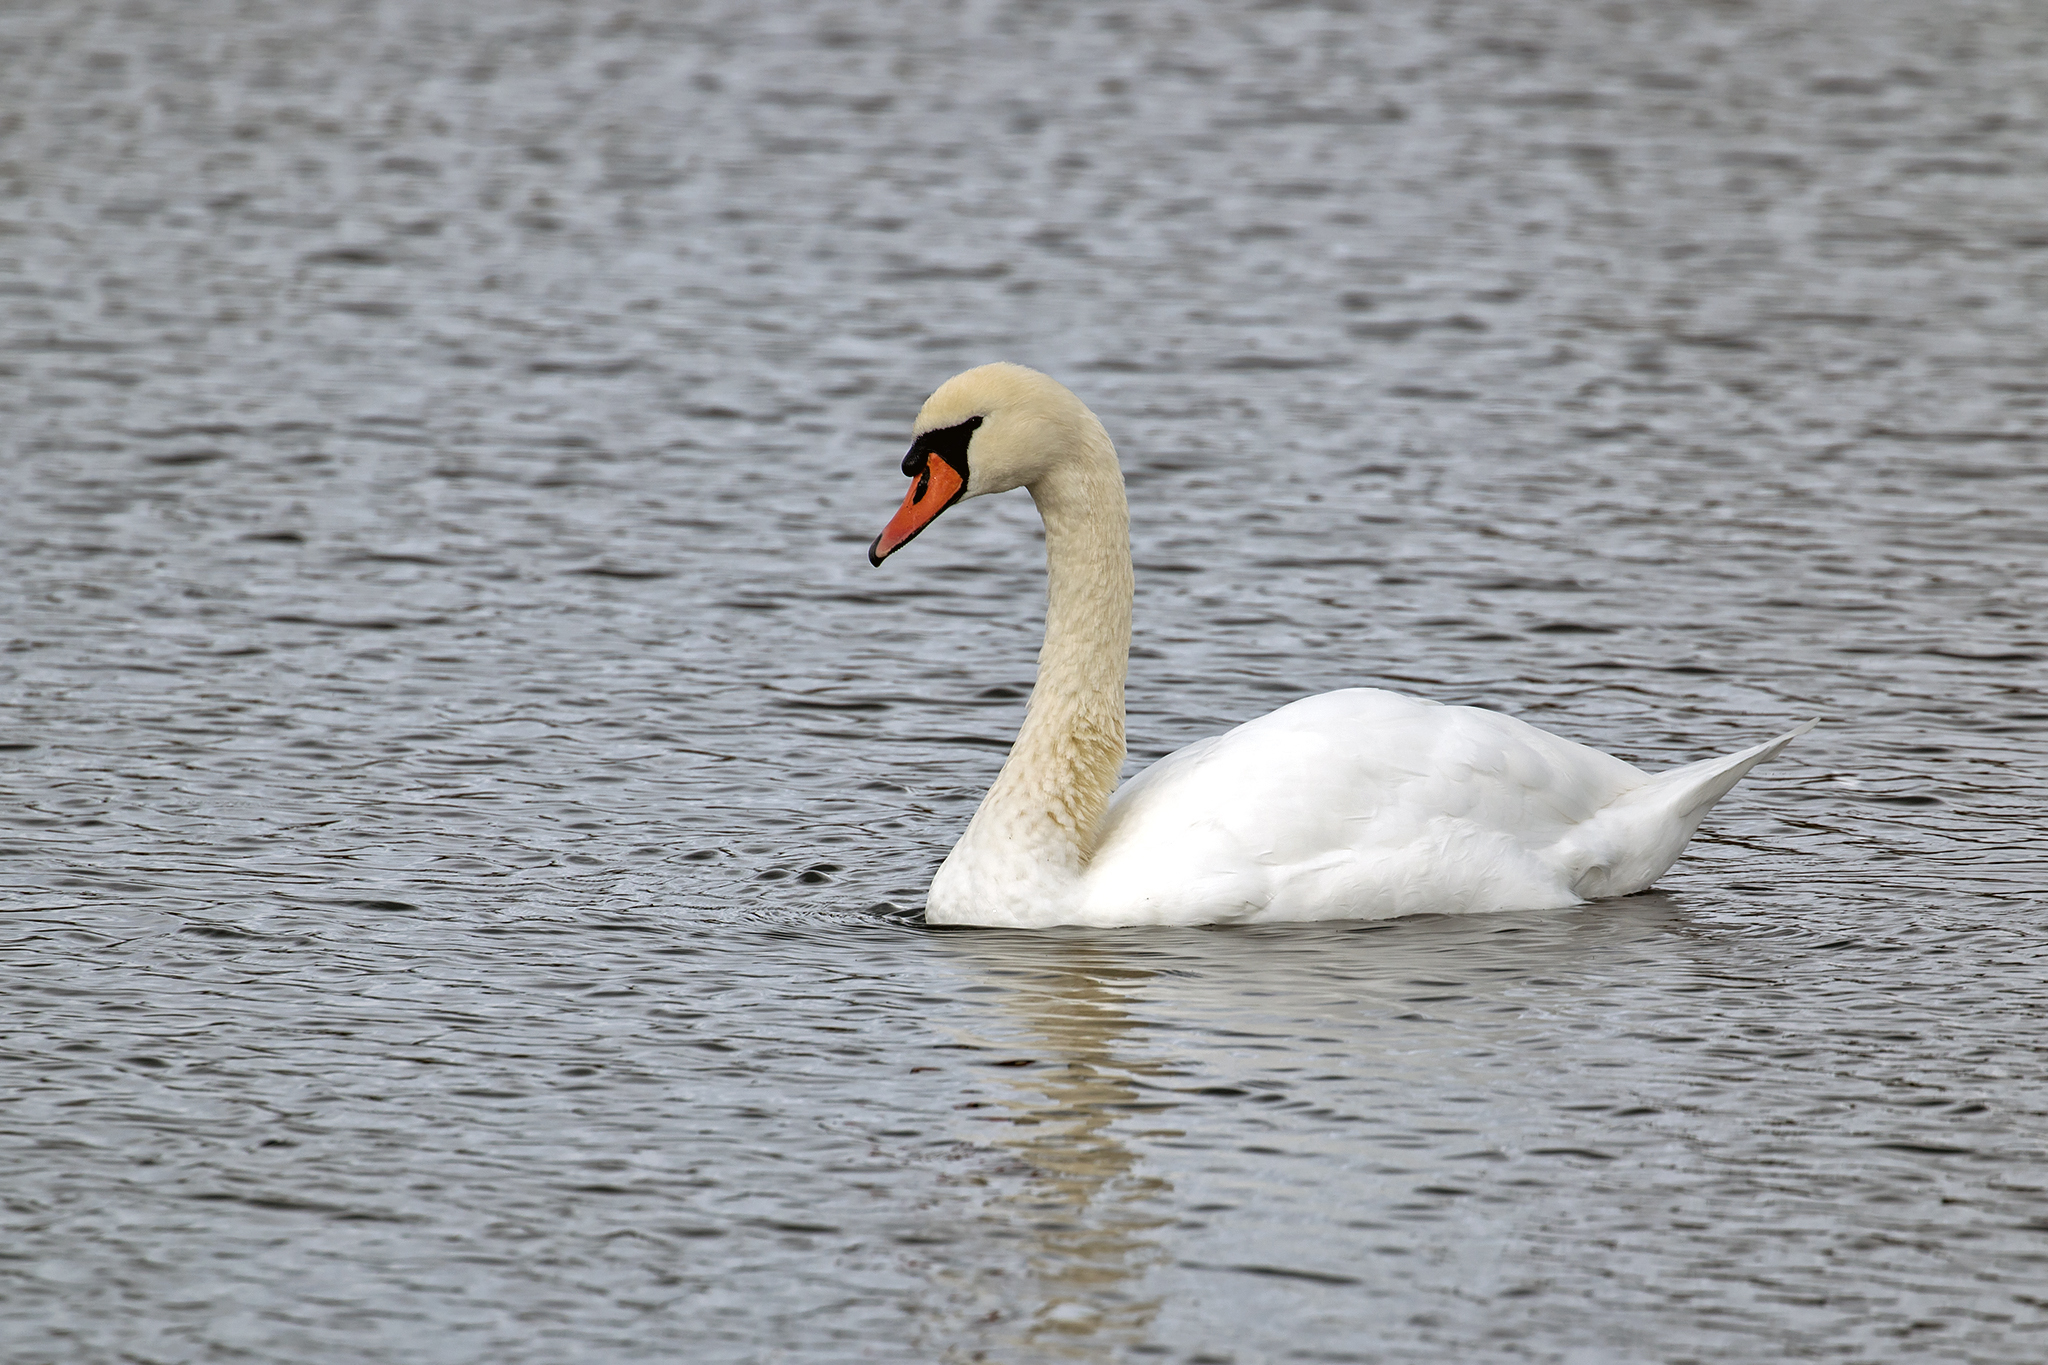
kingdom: Animalia
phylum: Chordata
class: Aves
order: Anseriformes
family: Anatidae
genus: Cygnus
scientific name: Cygnus olor
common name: Mute swan
